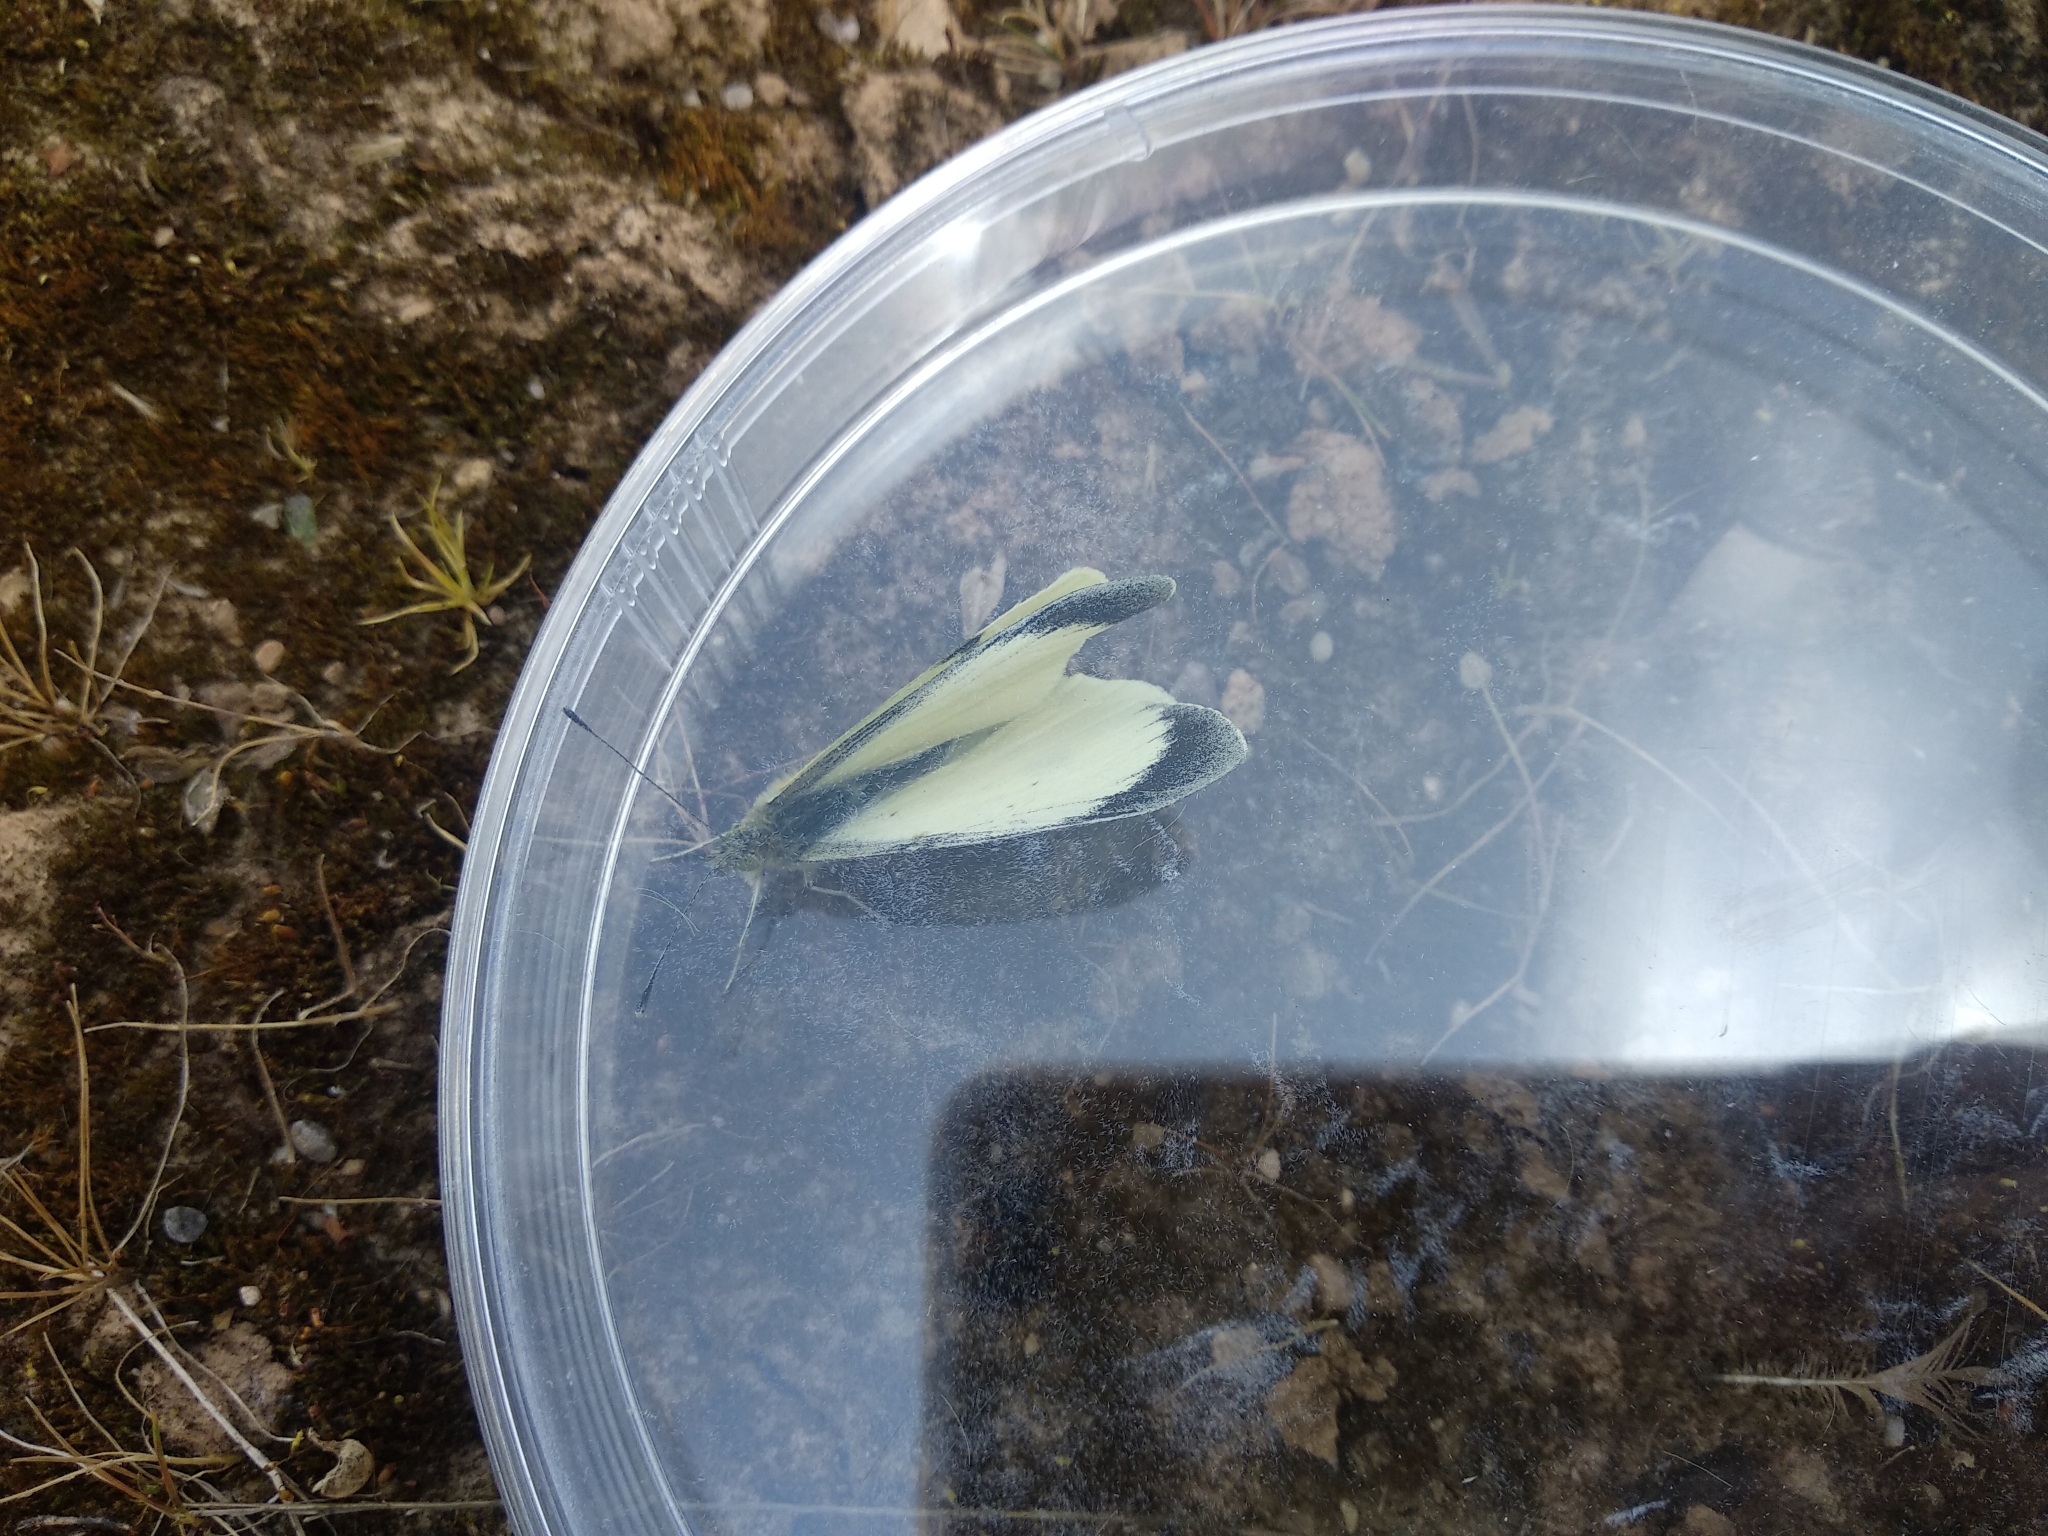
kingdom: Animalia
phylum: Arthropoda
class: Insecta
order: Lepidoptera
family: Pieridae
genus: Pieris
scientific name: Pieris brassicae
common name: Large white
